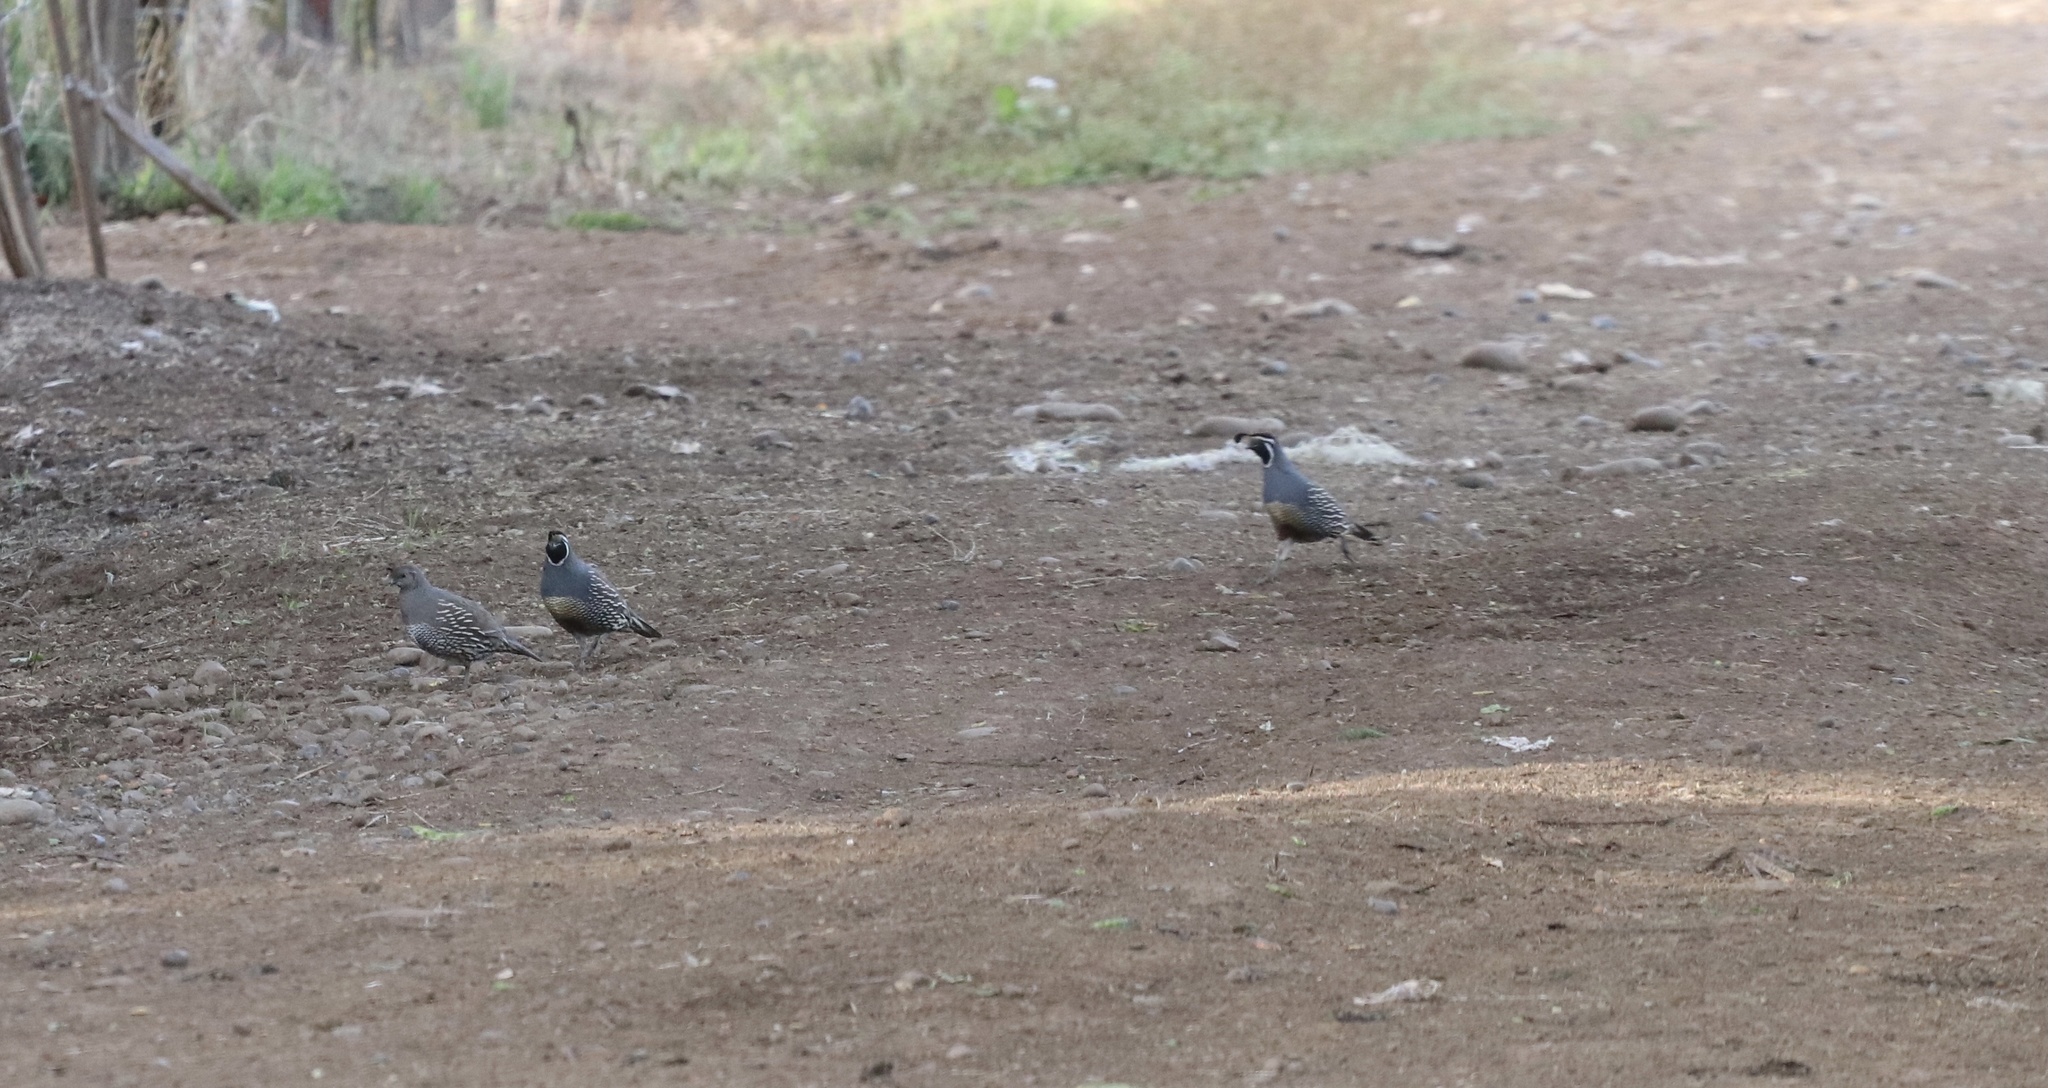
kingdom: Animalia
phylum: Chordata
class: Aves
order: Galliformes
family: Odontophoridae
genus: Callipepla
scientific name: Callipepla californica
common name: California quail
